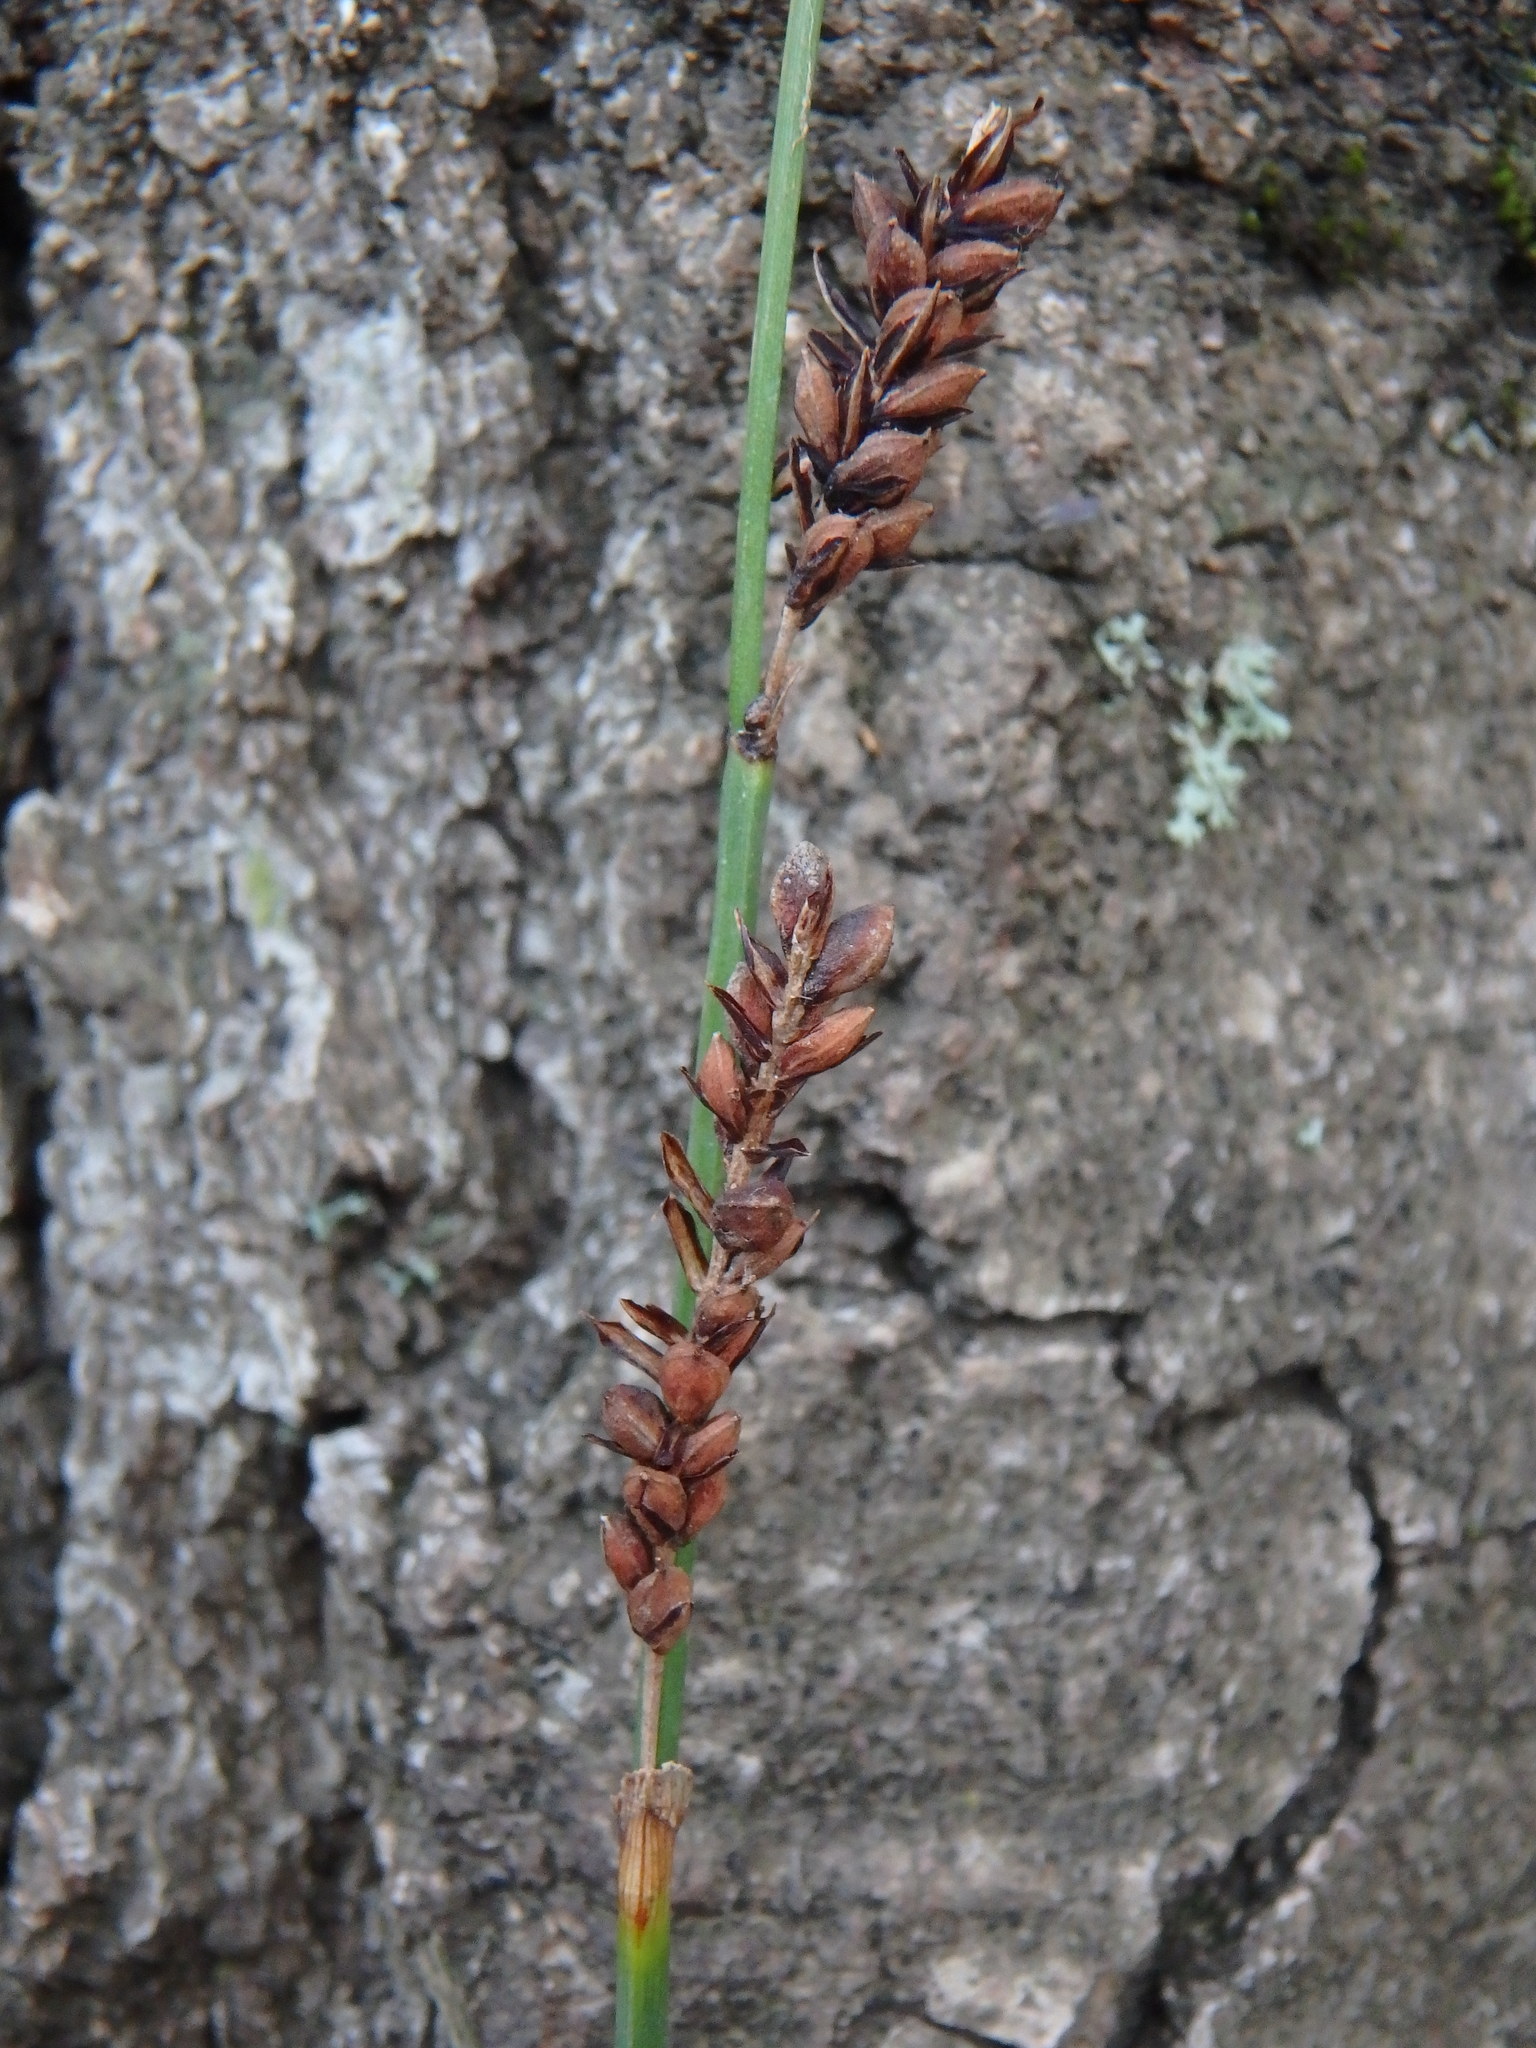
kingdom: Plantae
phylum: Tracheophyta
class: Liliopsida
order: Poales
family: Cyperaceae
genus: Carex
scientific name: Carex flacca
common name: Glaucous sedge
